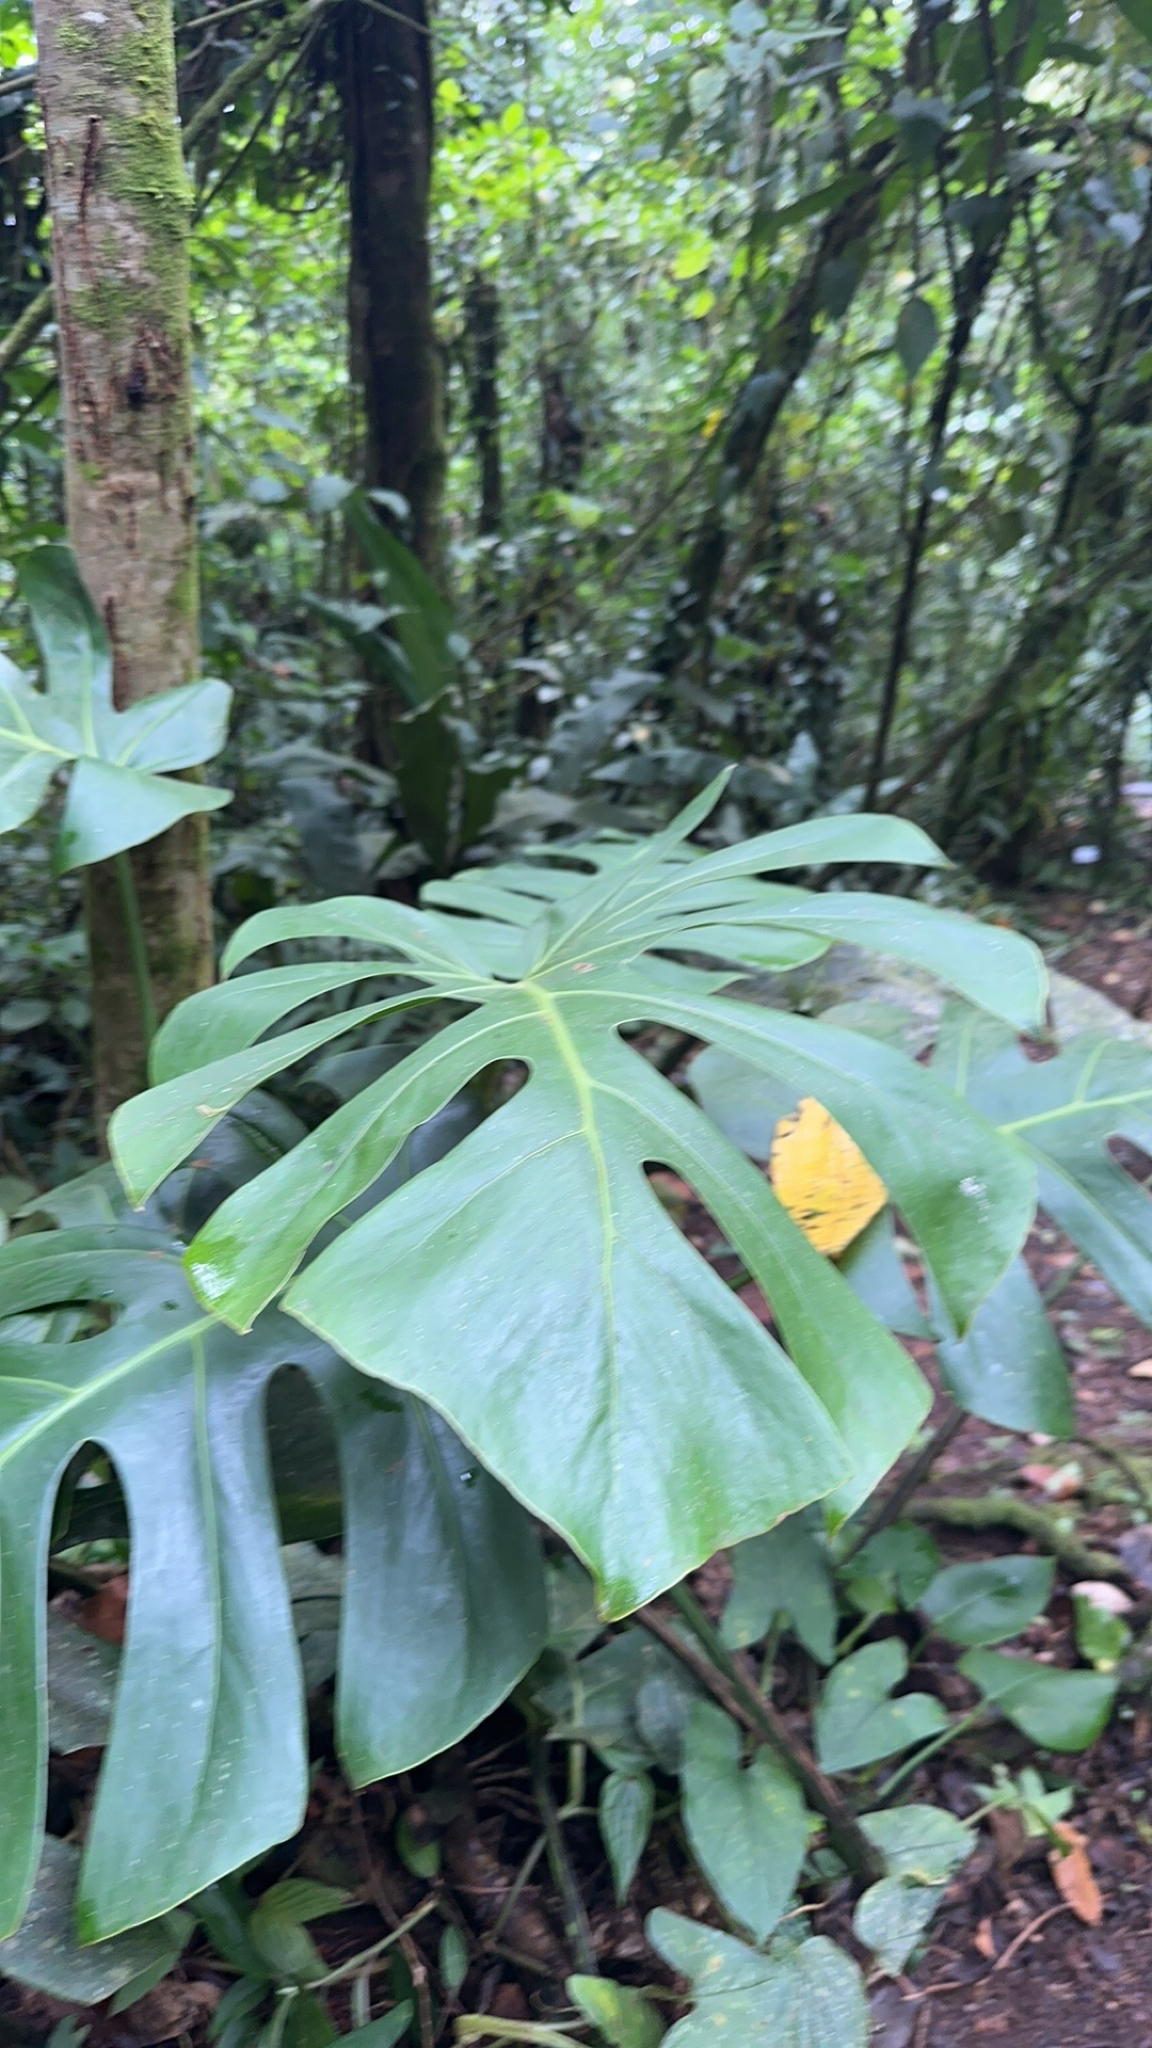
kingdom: Plantae
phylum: Tracheophyta
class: Liliopsida
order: Alismatales
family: Araceae
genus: Monstera
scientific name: Monstera deliciosa
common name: Cut-leaf-philodendron
